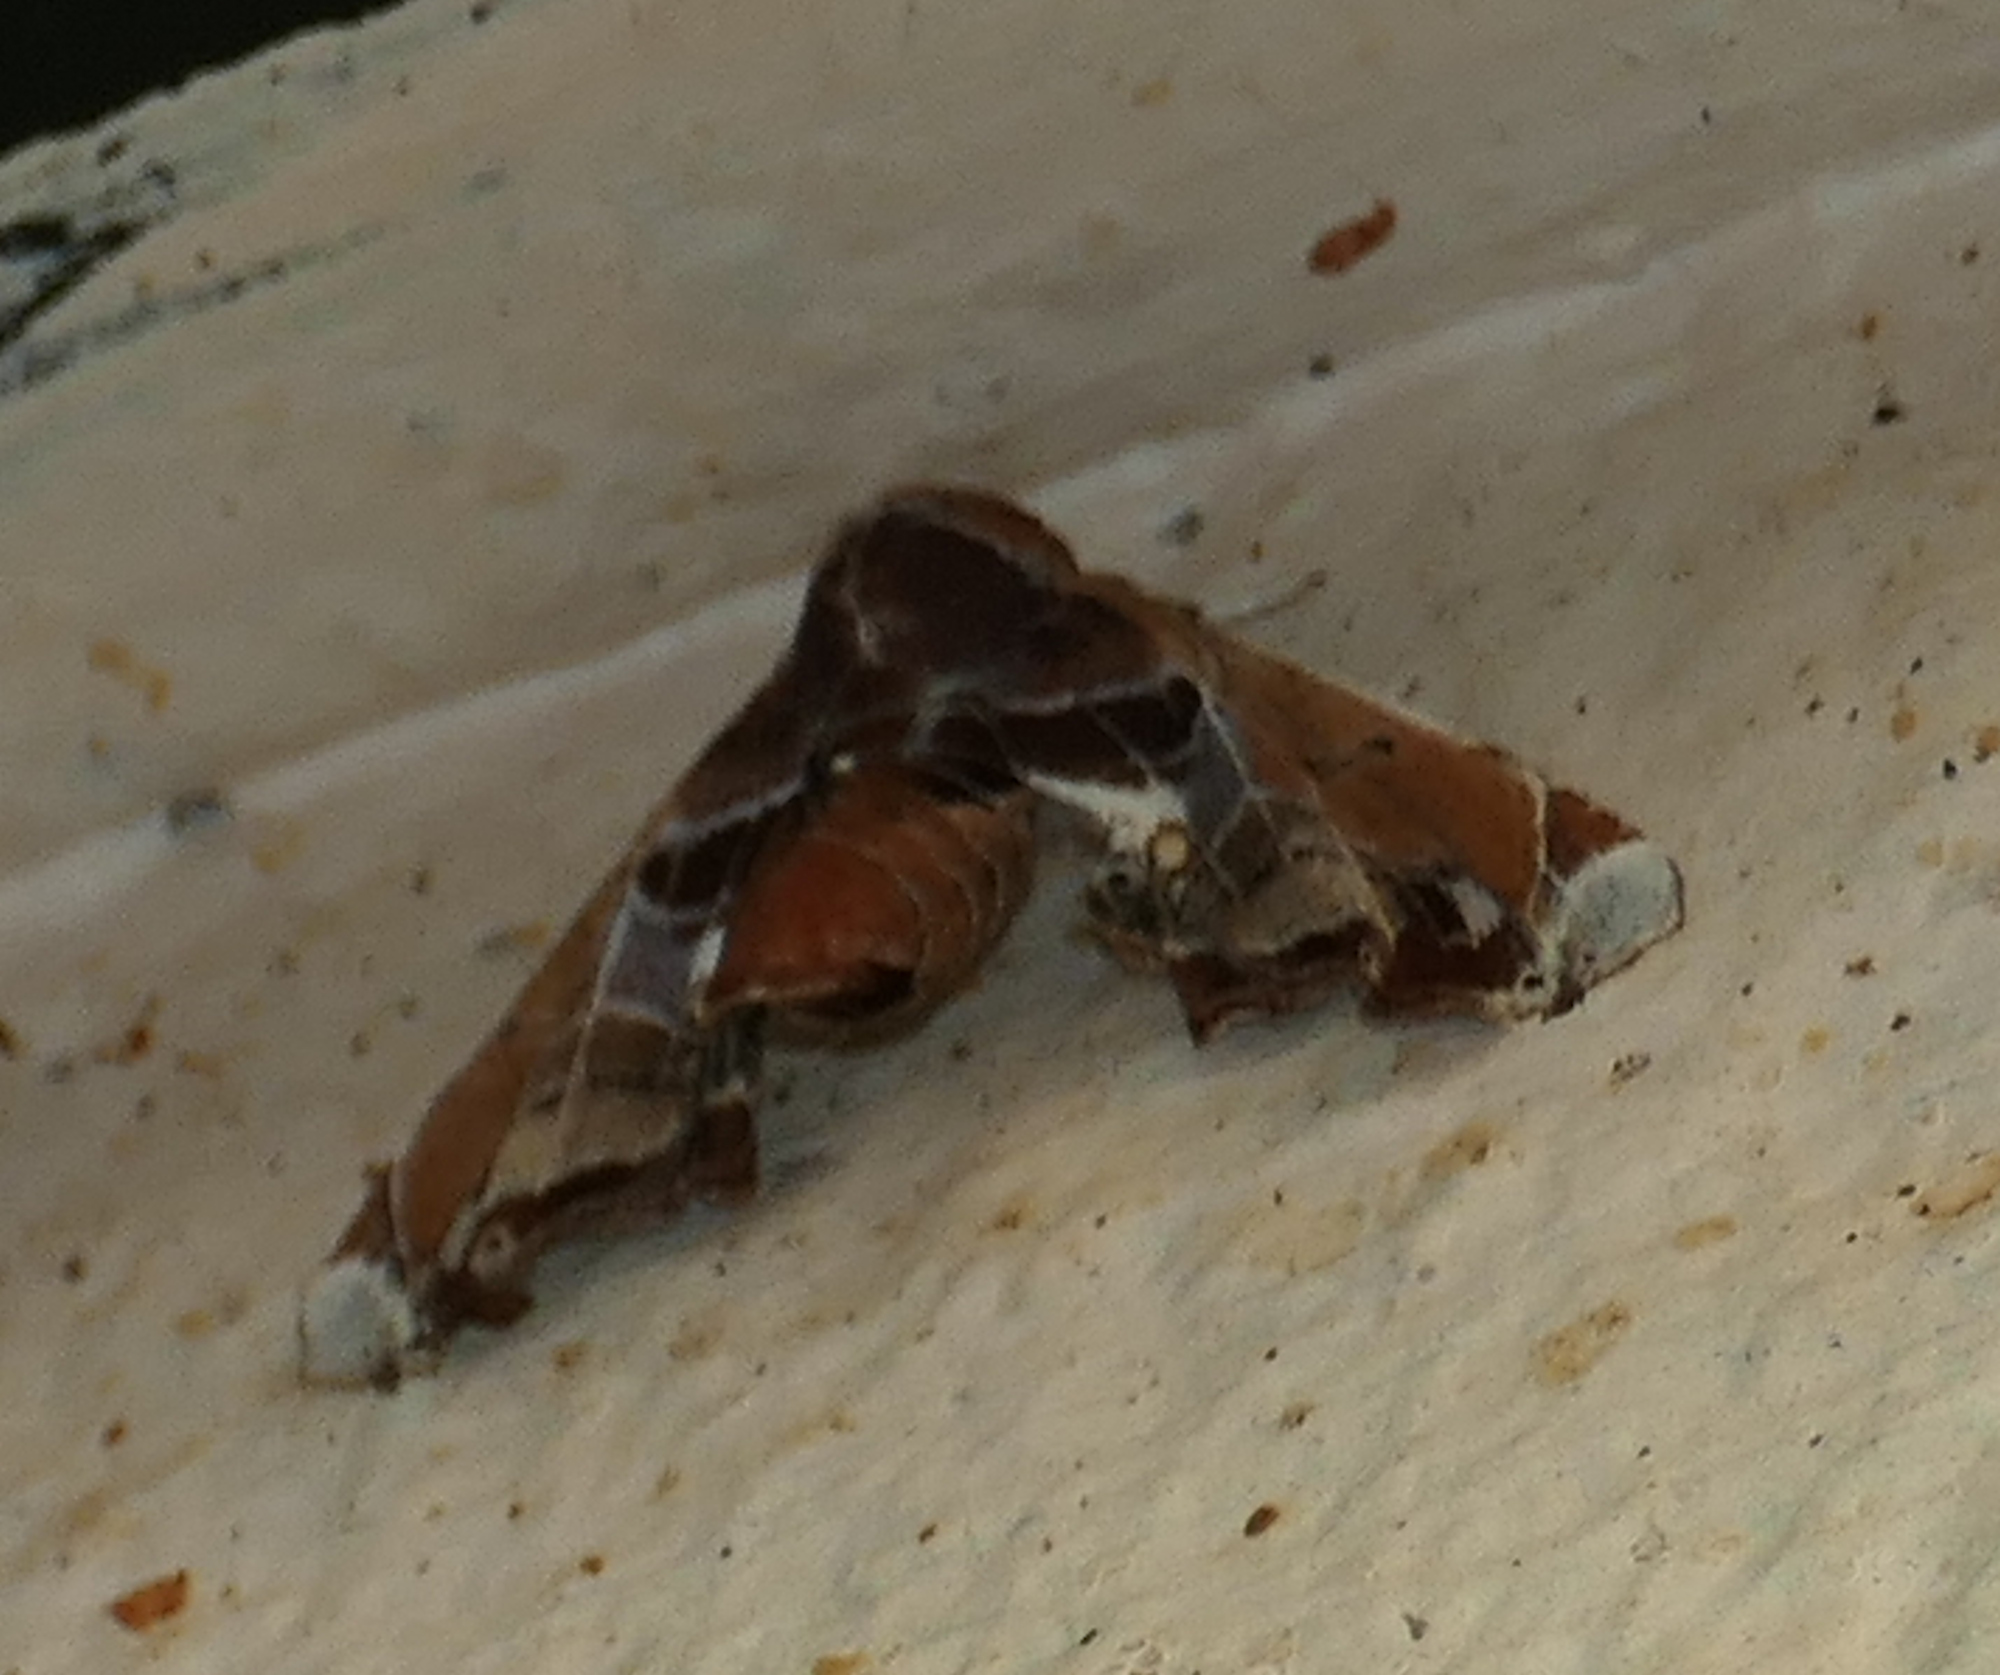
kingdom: Animalia
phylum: Arthropoda
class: Insecta
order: Lepidoptera
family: Euteliidae
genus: Eutelia
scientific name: Eutelia pulcherrimus
